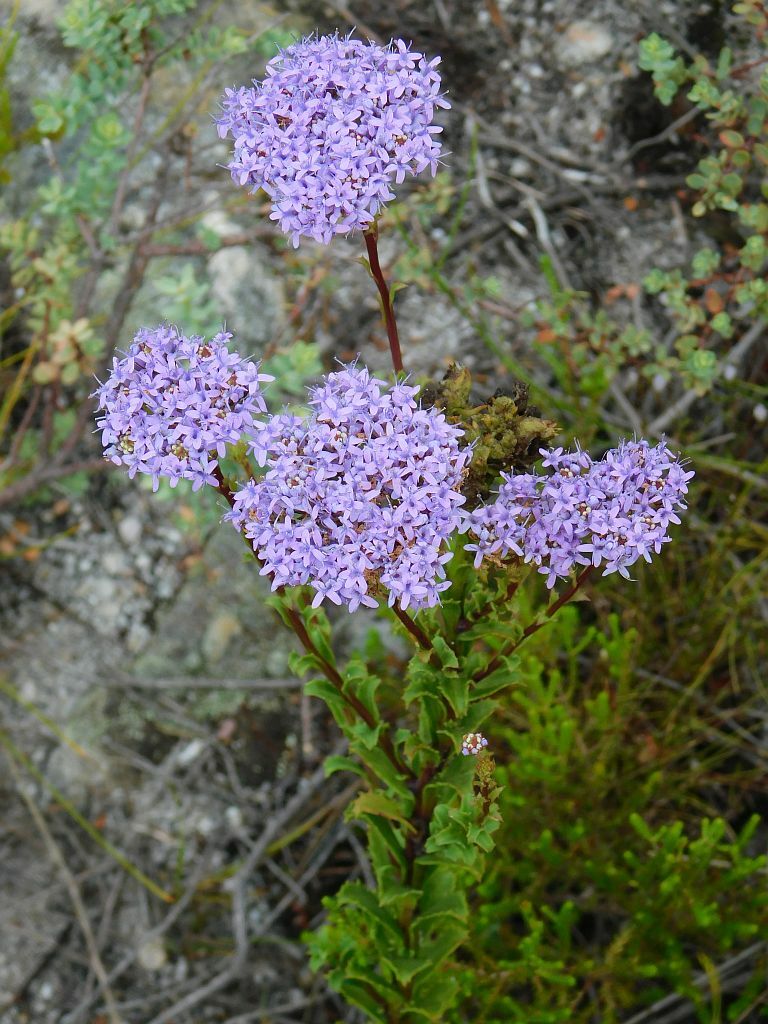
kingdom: Plantae
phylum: Tracheophyta
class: Magnoliopsida
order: Lamiales
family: Scrophulariaceae
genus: Pseudoselago
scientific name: Pseudoselago serrata
